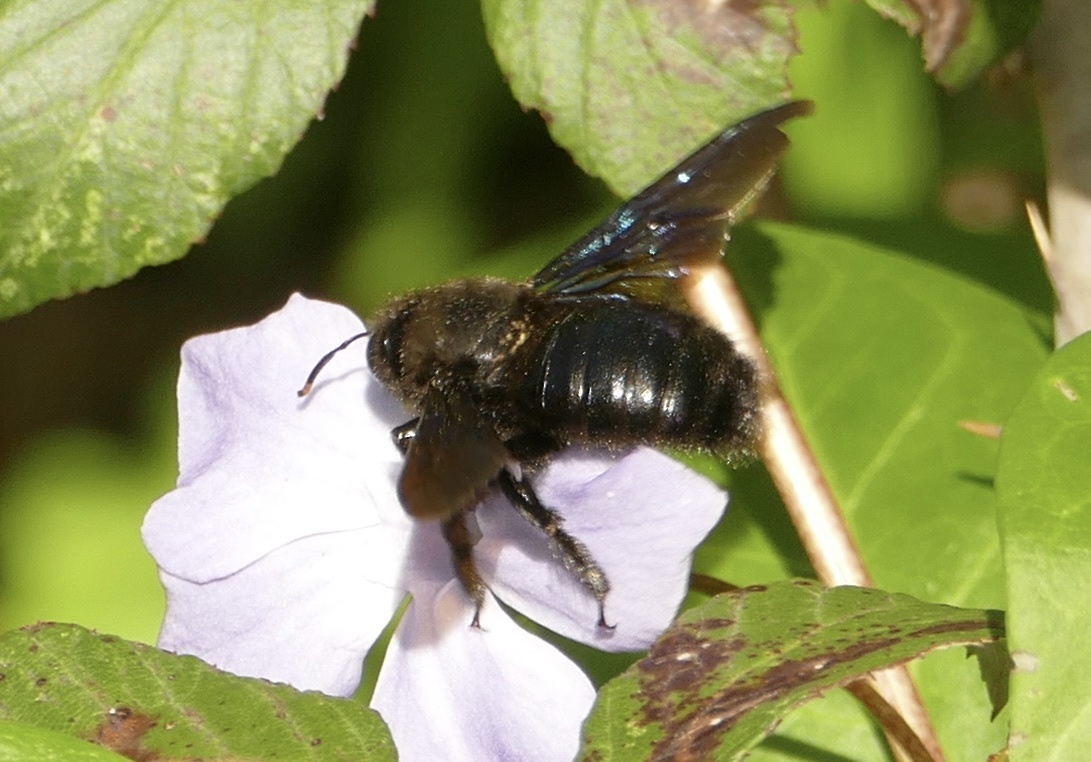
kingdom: Animalia
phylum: Arthropoda
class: Insecta
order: Hymenoptera
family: Apidae
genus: Xylocopa
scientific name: Xylocopa violacea
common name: Violet carpenter bee
